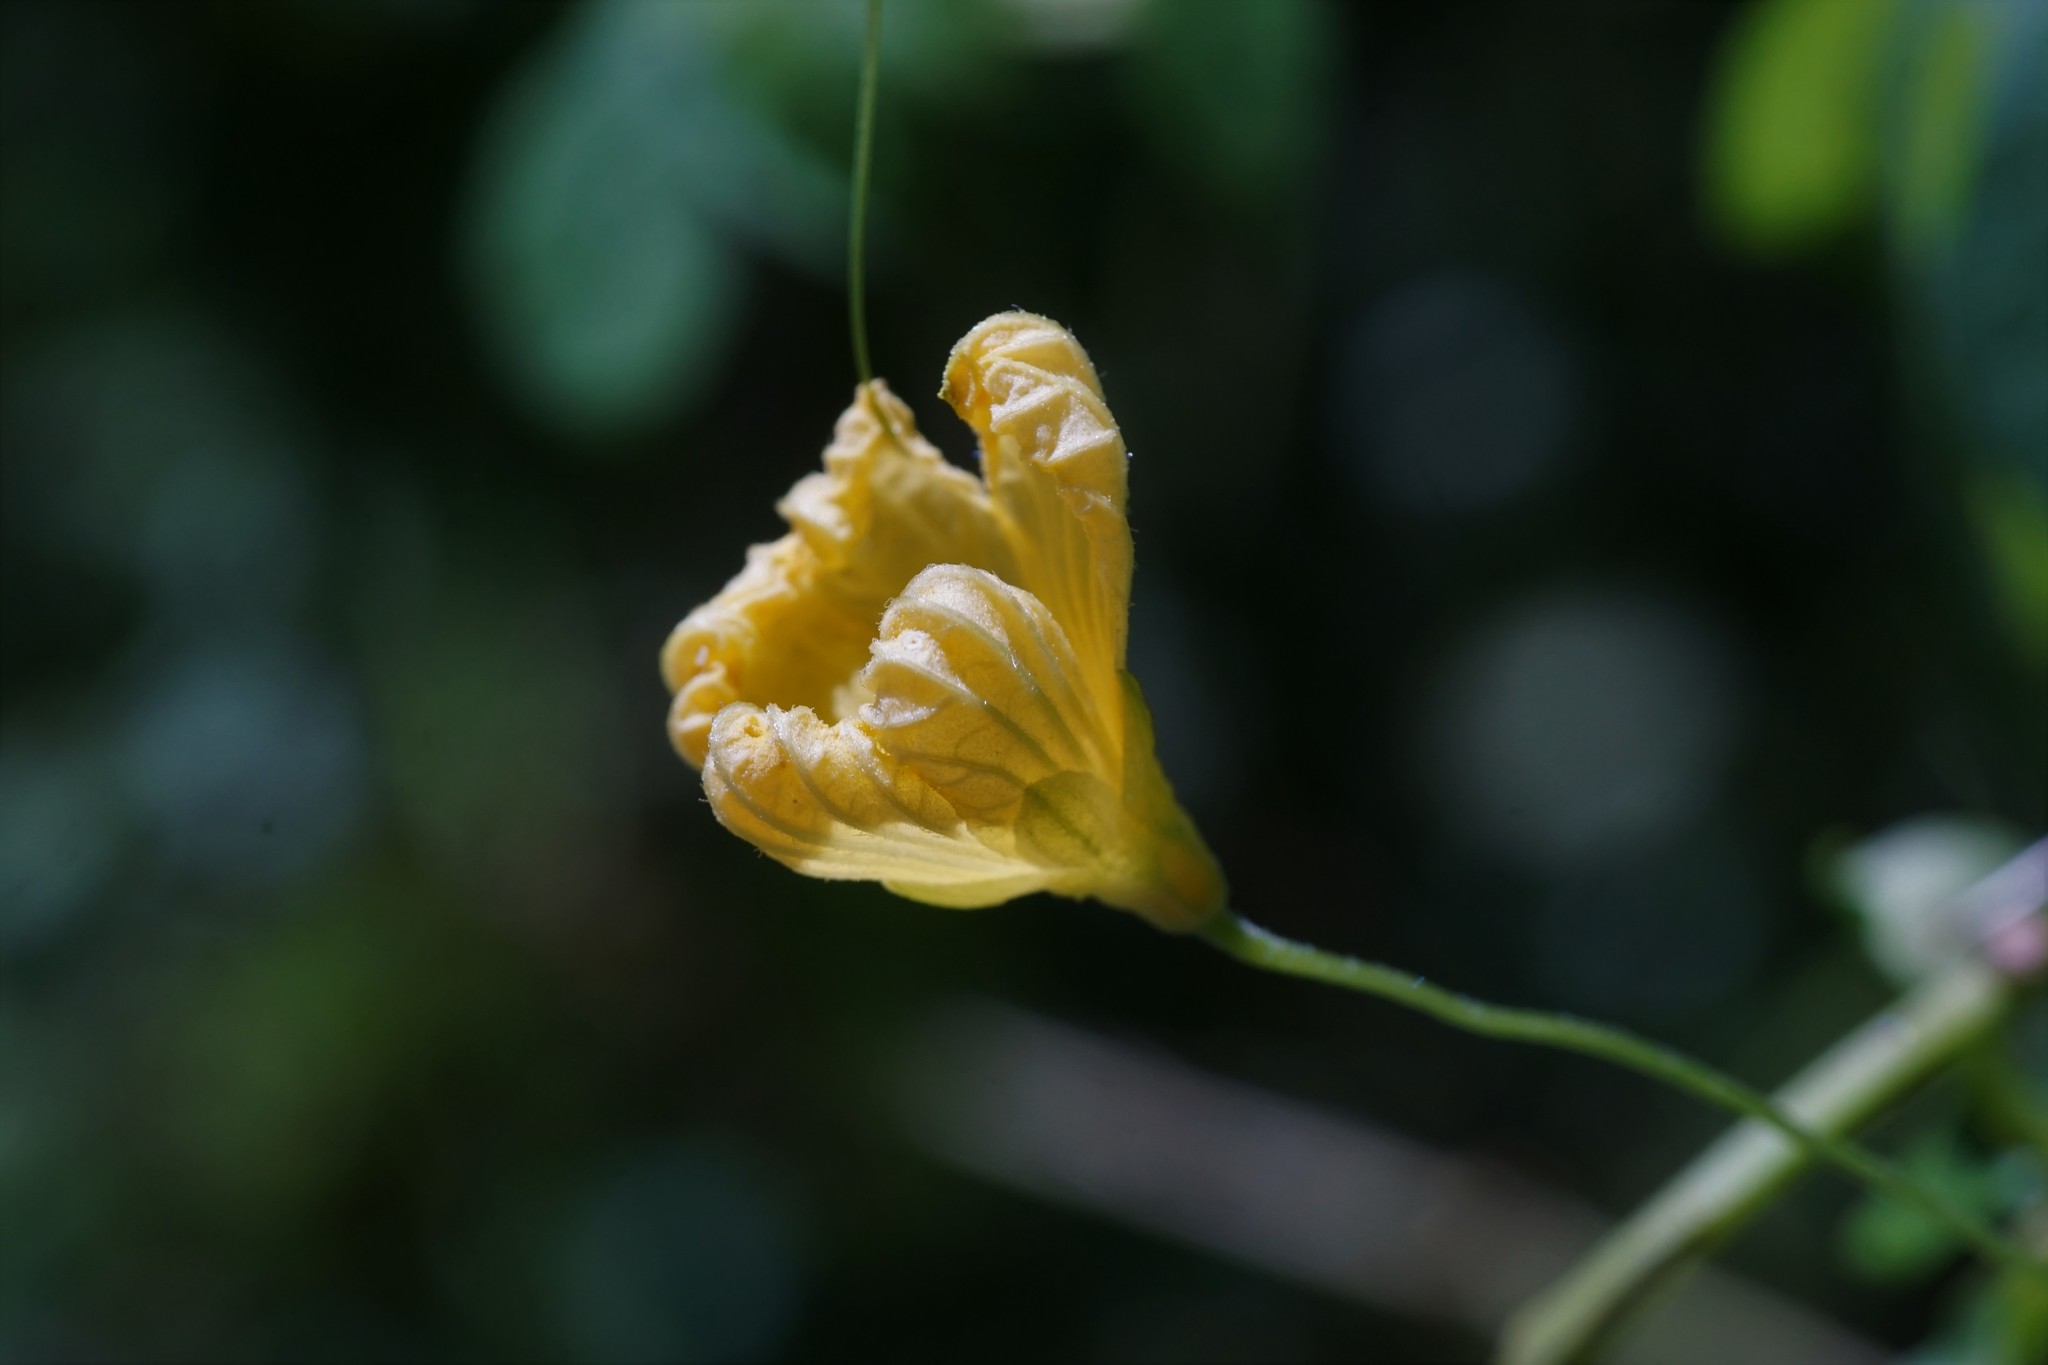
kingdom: Plantae
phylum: Tracheophyta
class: Magnoliopsida
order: Cucurbitales
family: Cucurbitaceae
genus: Momordica
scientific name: Momordica charantia
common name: Balsampear
